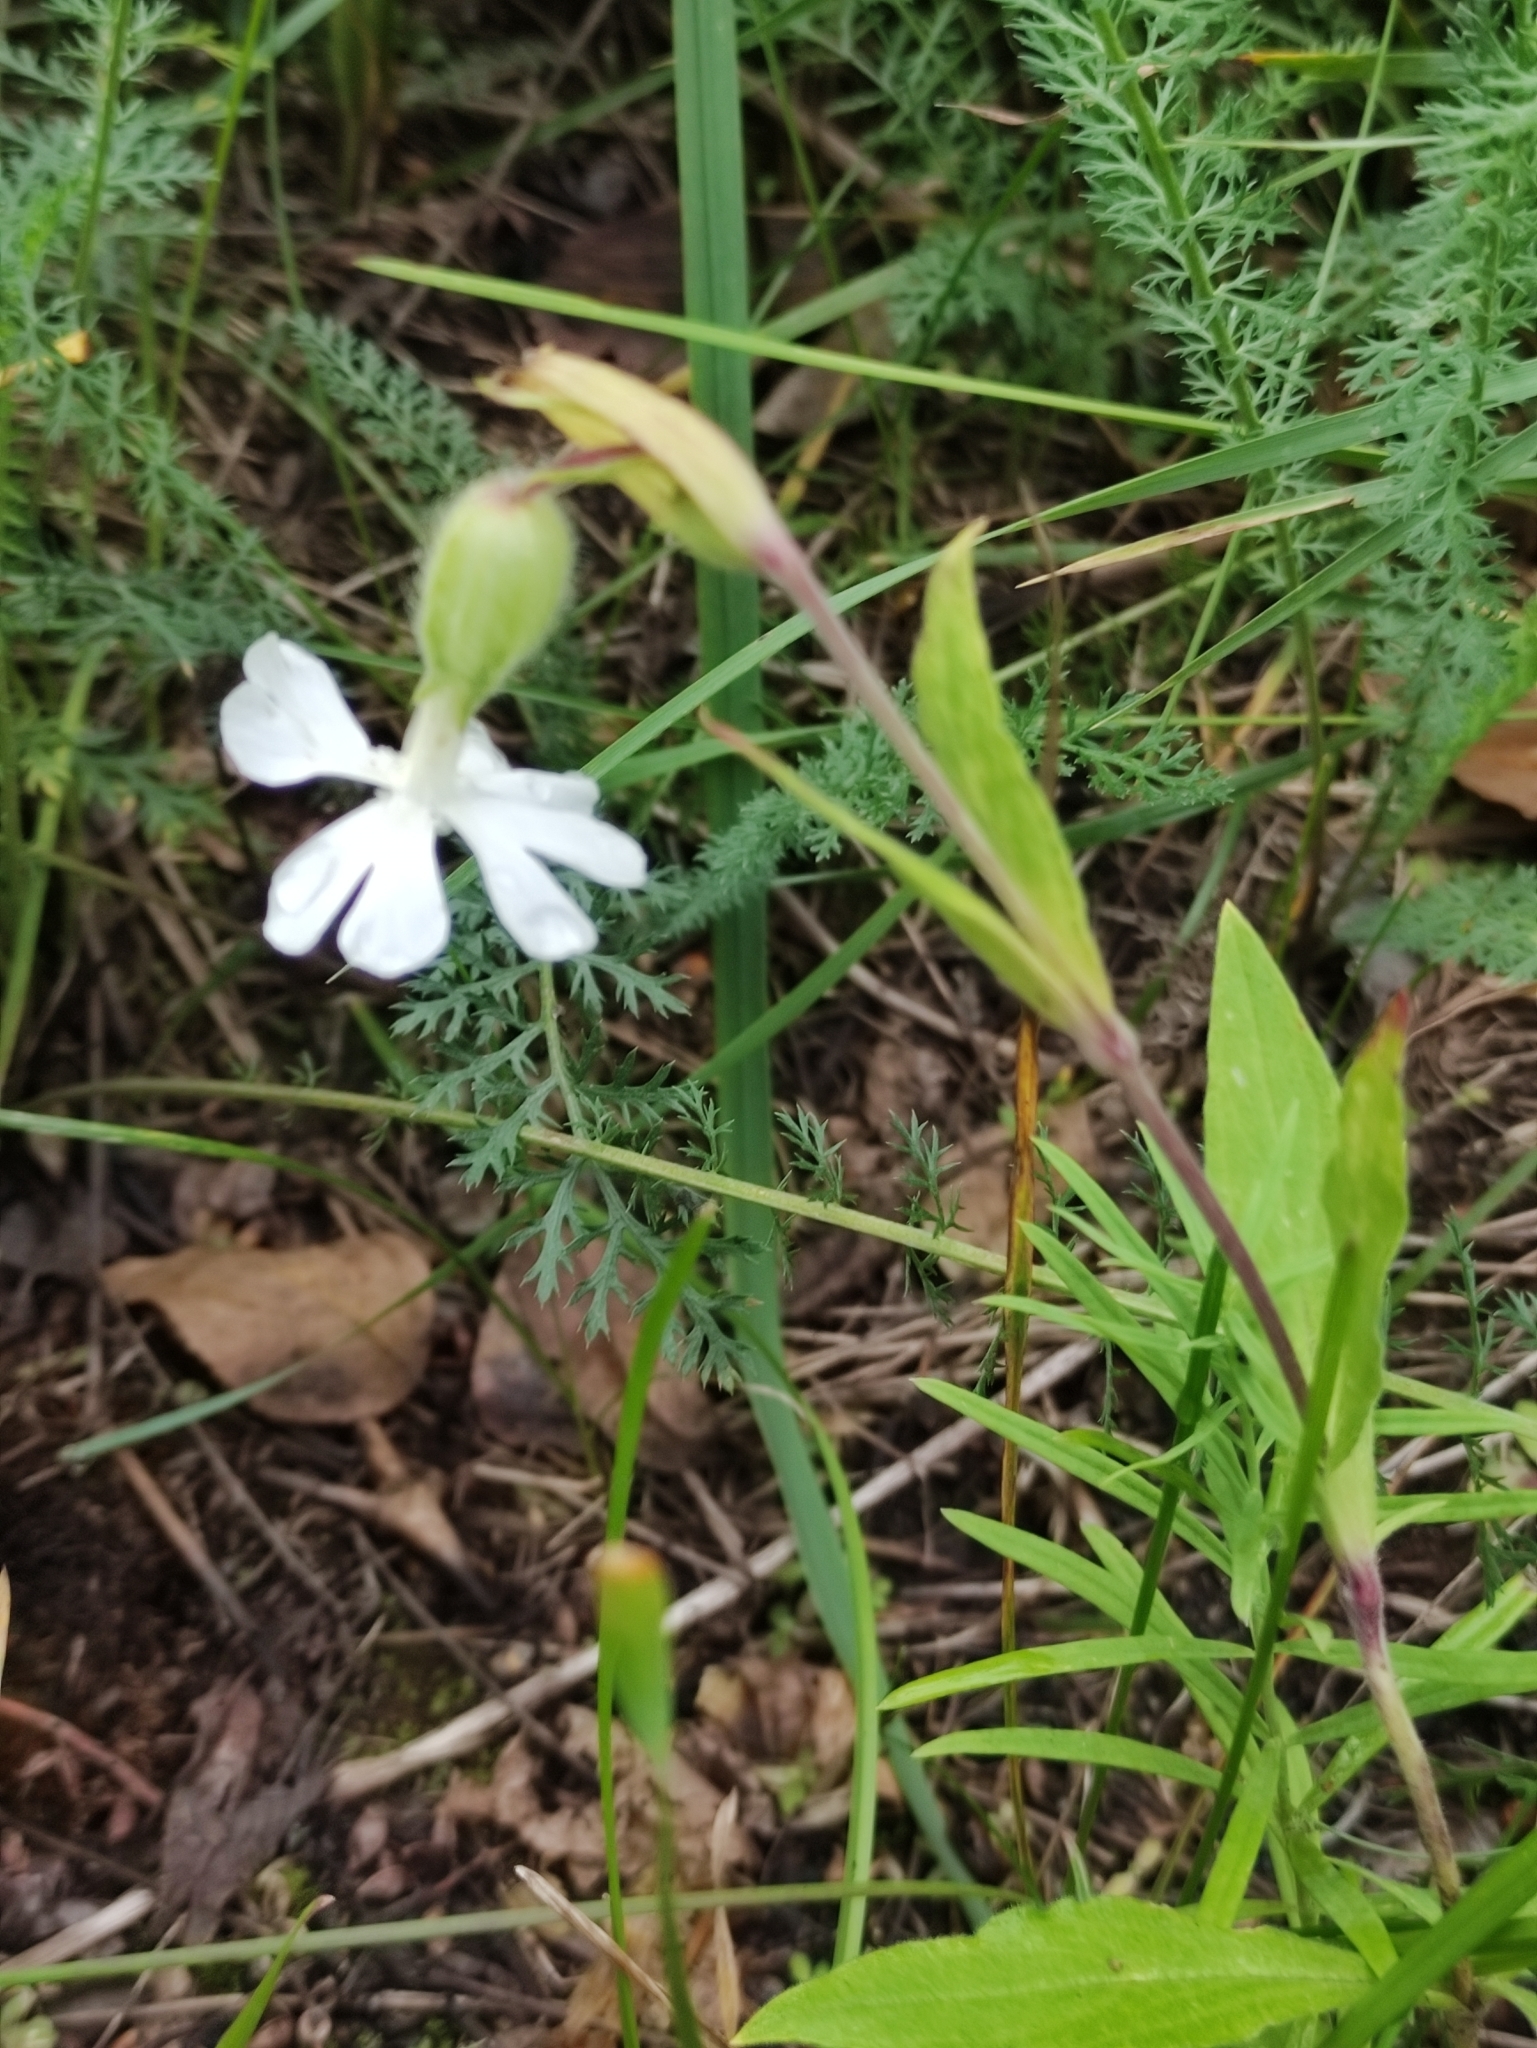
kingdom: Plantae
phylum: Tracheophyta
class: Magnoliopsida
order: Caryophyllales
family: Caryophyllaceae
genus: Silene
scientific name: Silene latifolia
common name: White campion
